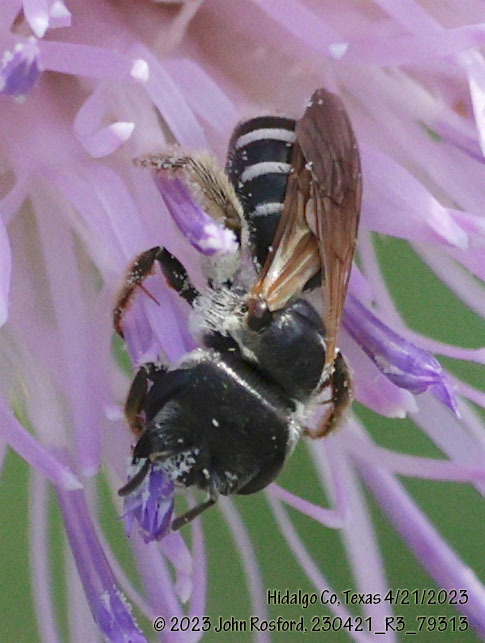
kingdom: Animalia
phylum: Arthropoda
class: Insecta
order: Hymenoptera
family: Halictidae
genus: Halictus
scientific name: Halictus ligatus
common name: Ligated furrow bee
